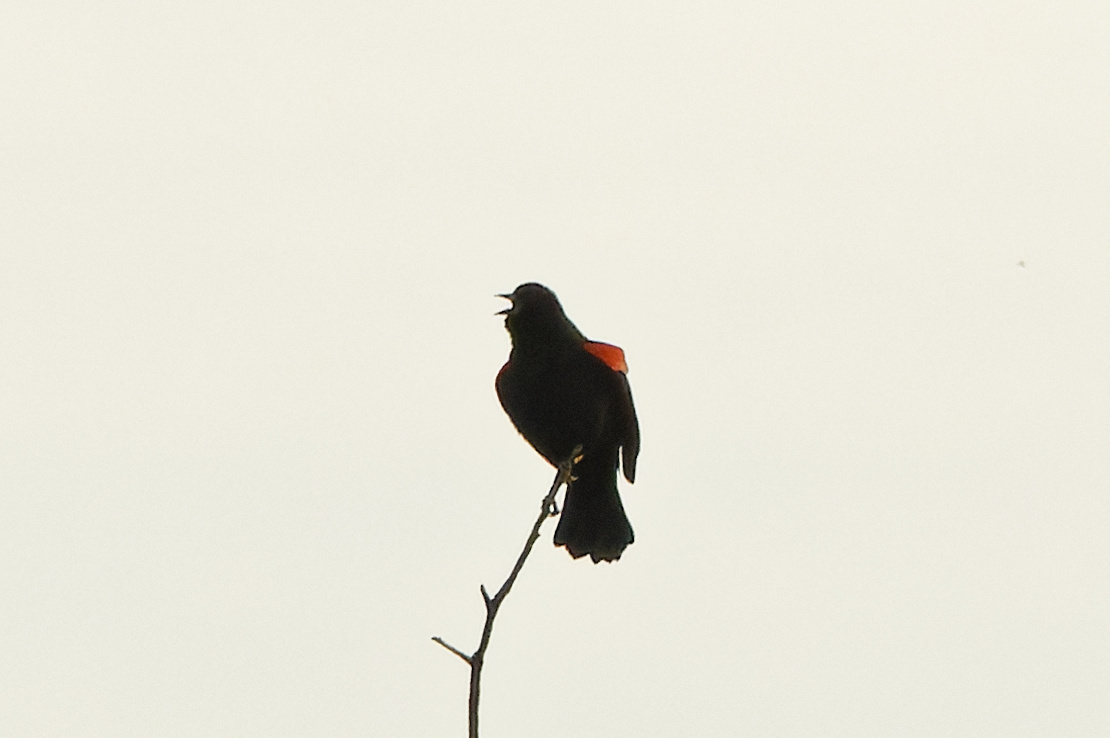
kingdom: Animalia
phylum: Chordata
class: Aves
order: Passeriformes
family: Icteridae
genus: Agelaius
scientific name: Agelaius phoeniceus
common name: Red-winged blackbird
